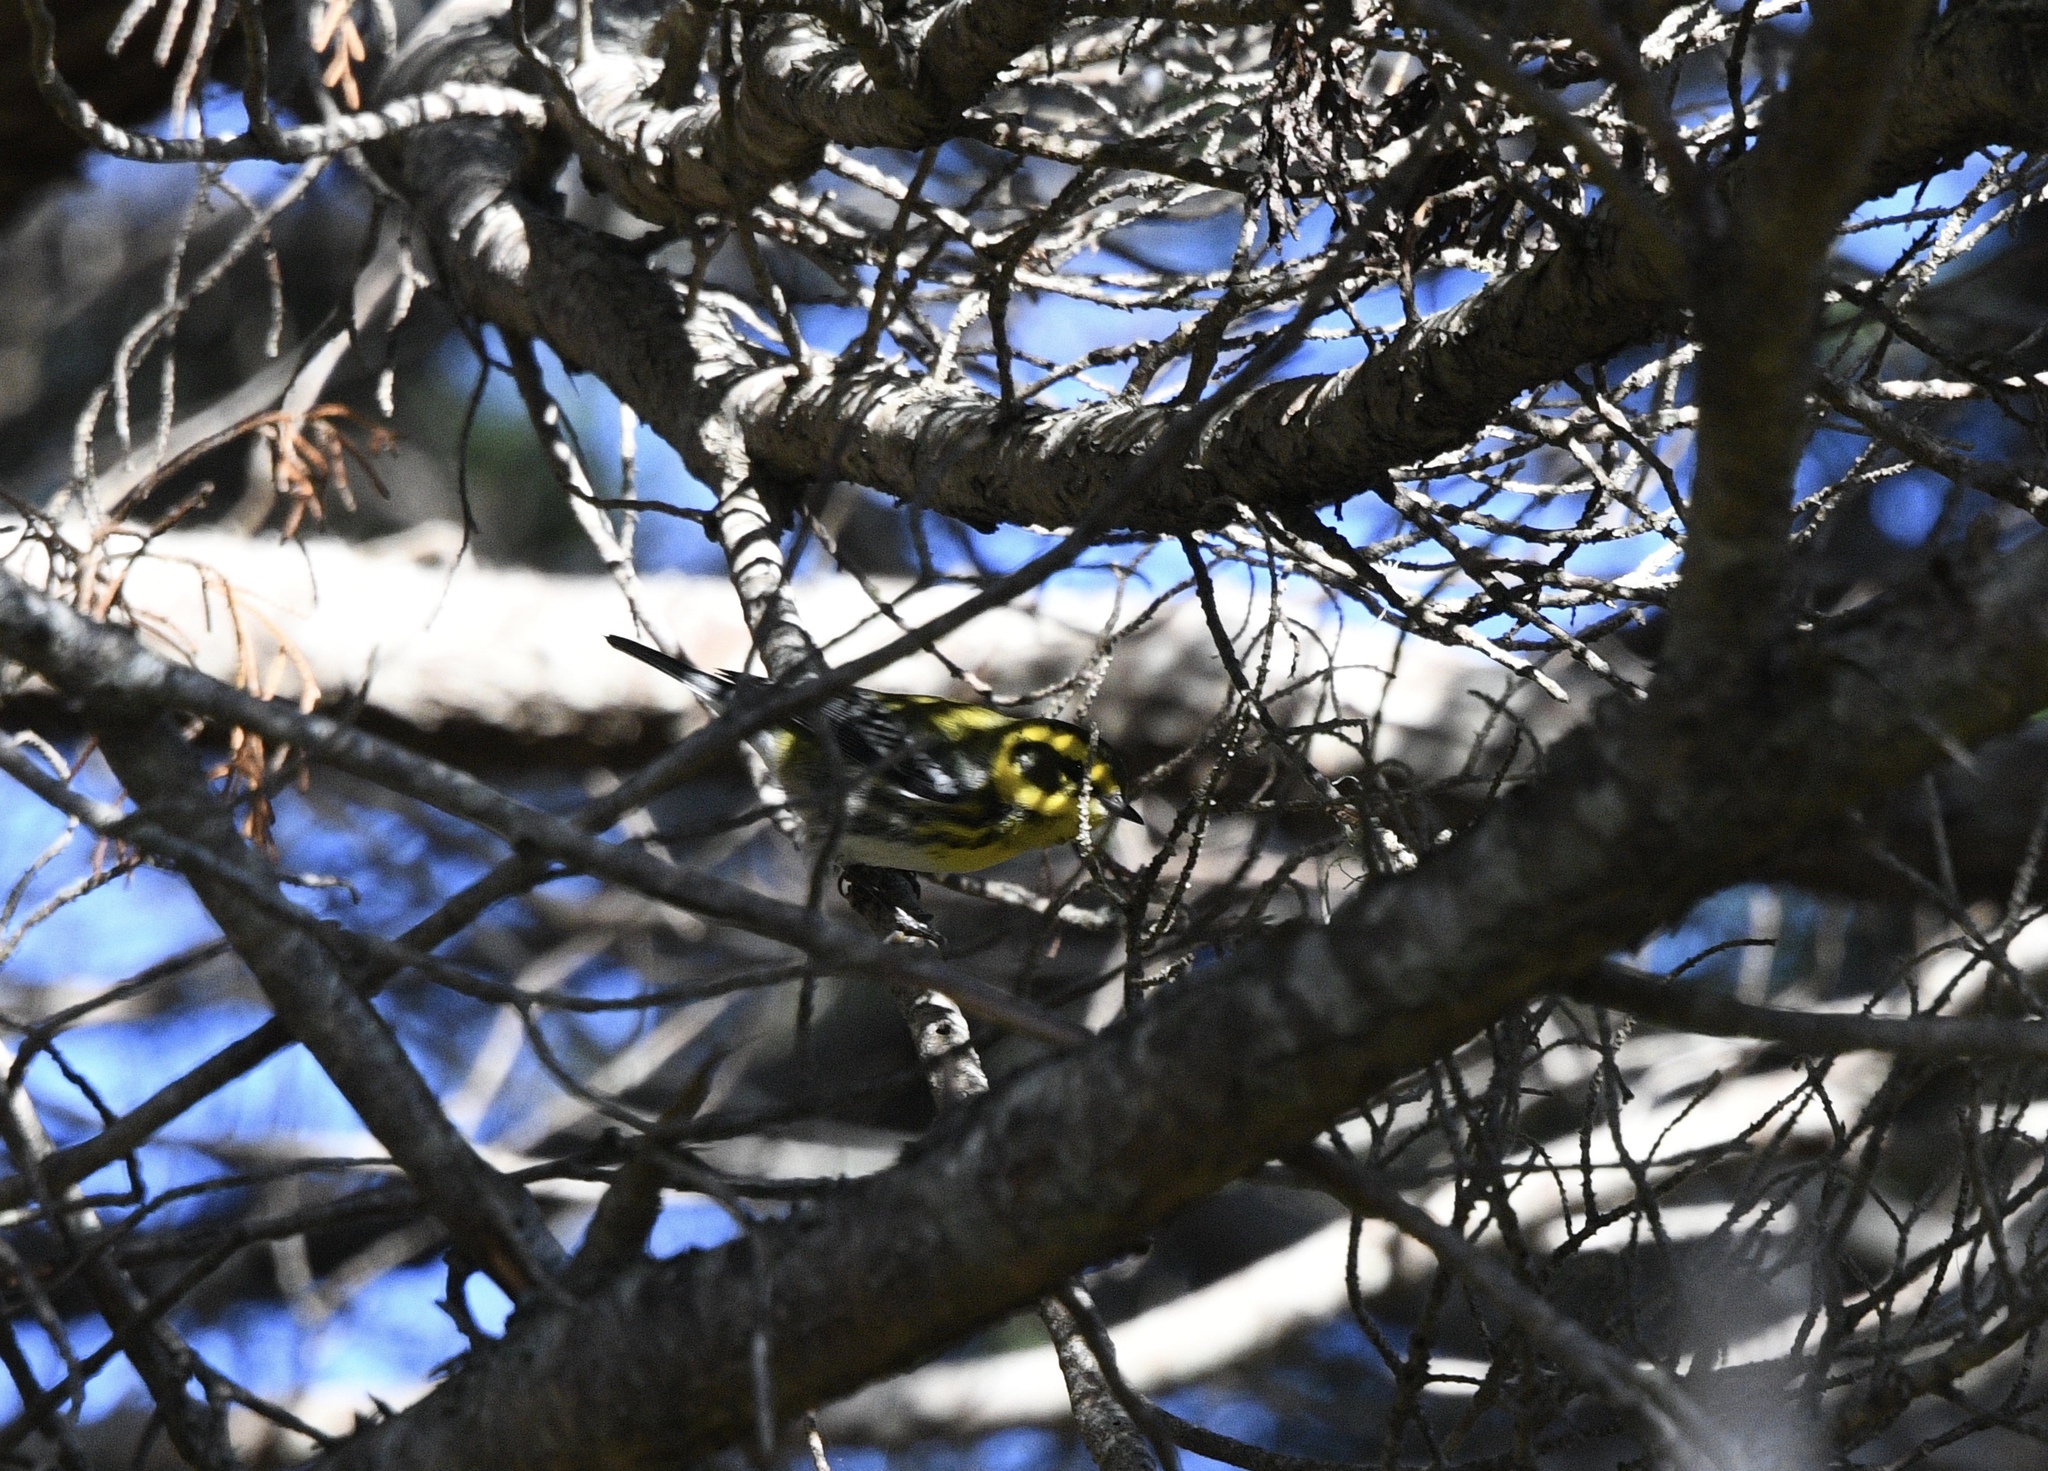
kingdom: Animalia
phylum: Chordata
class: Aves
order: Passeriformes
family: Parulidae
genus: Setophaga
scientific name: Setophaga townsendi
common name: Townsend's warbler
